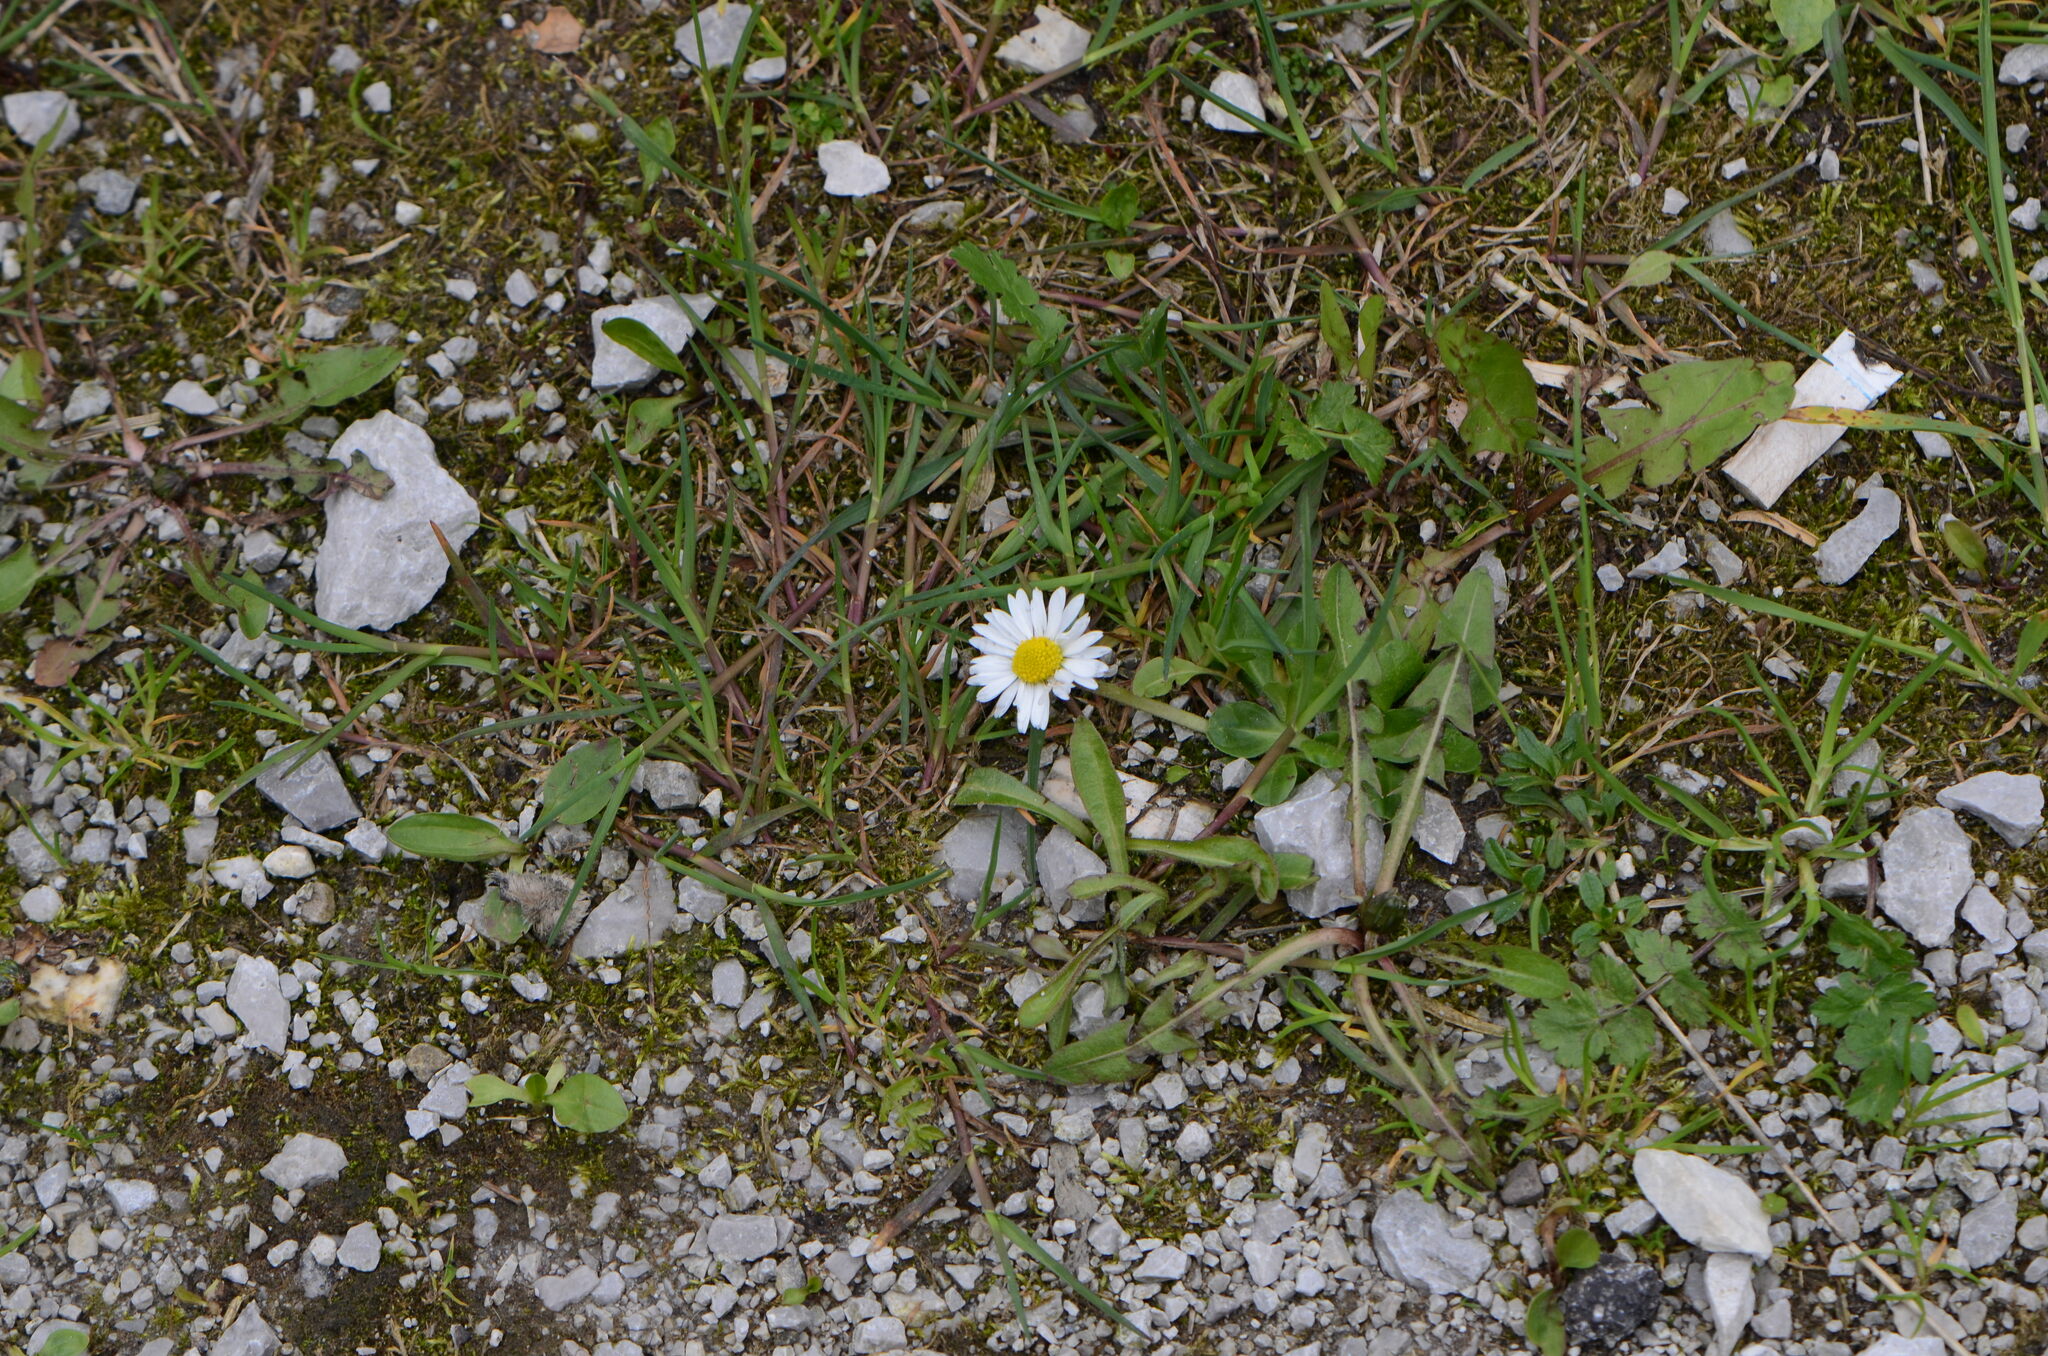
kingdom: Plantae
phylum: Tracheophyta
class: Magnoliopsida
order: Asterales
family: Asteraceae
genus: Bellis
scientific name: Bellis perennis
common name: Lawndaisy
